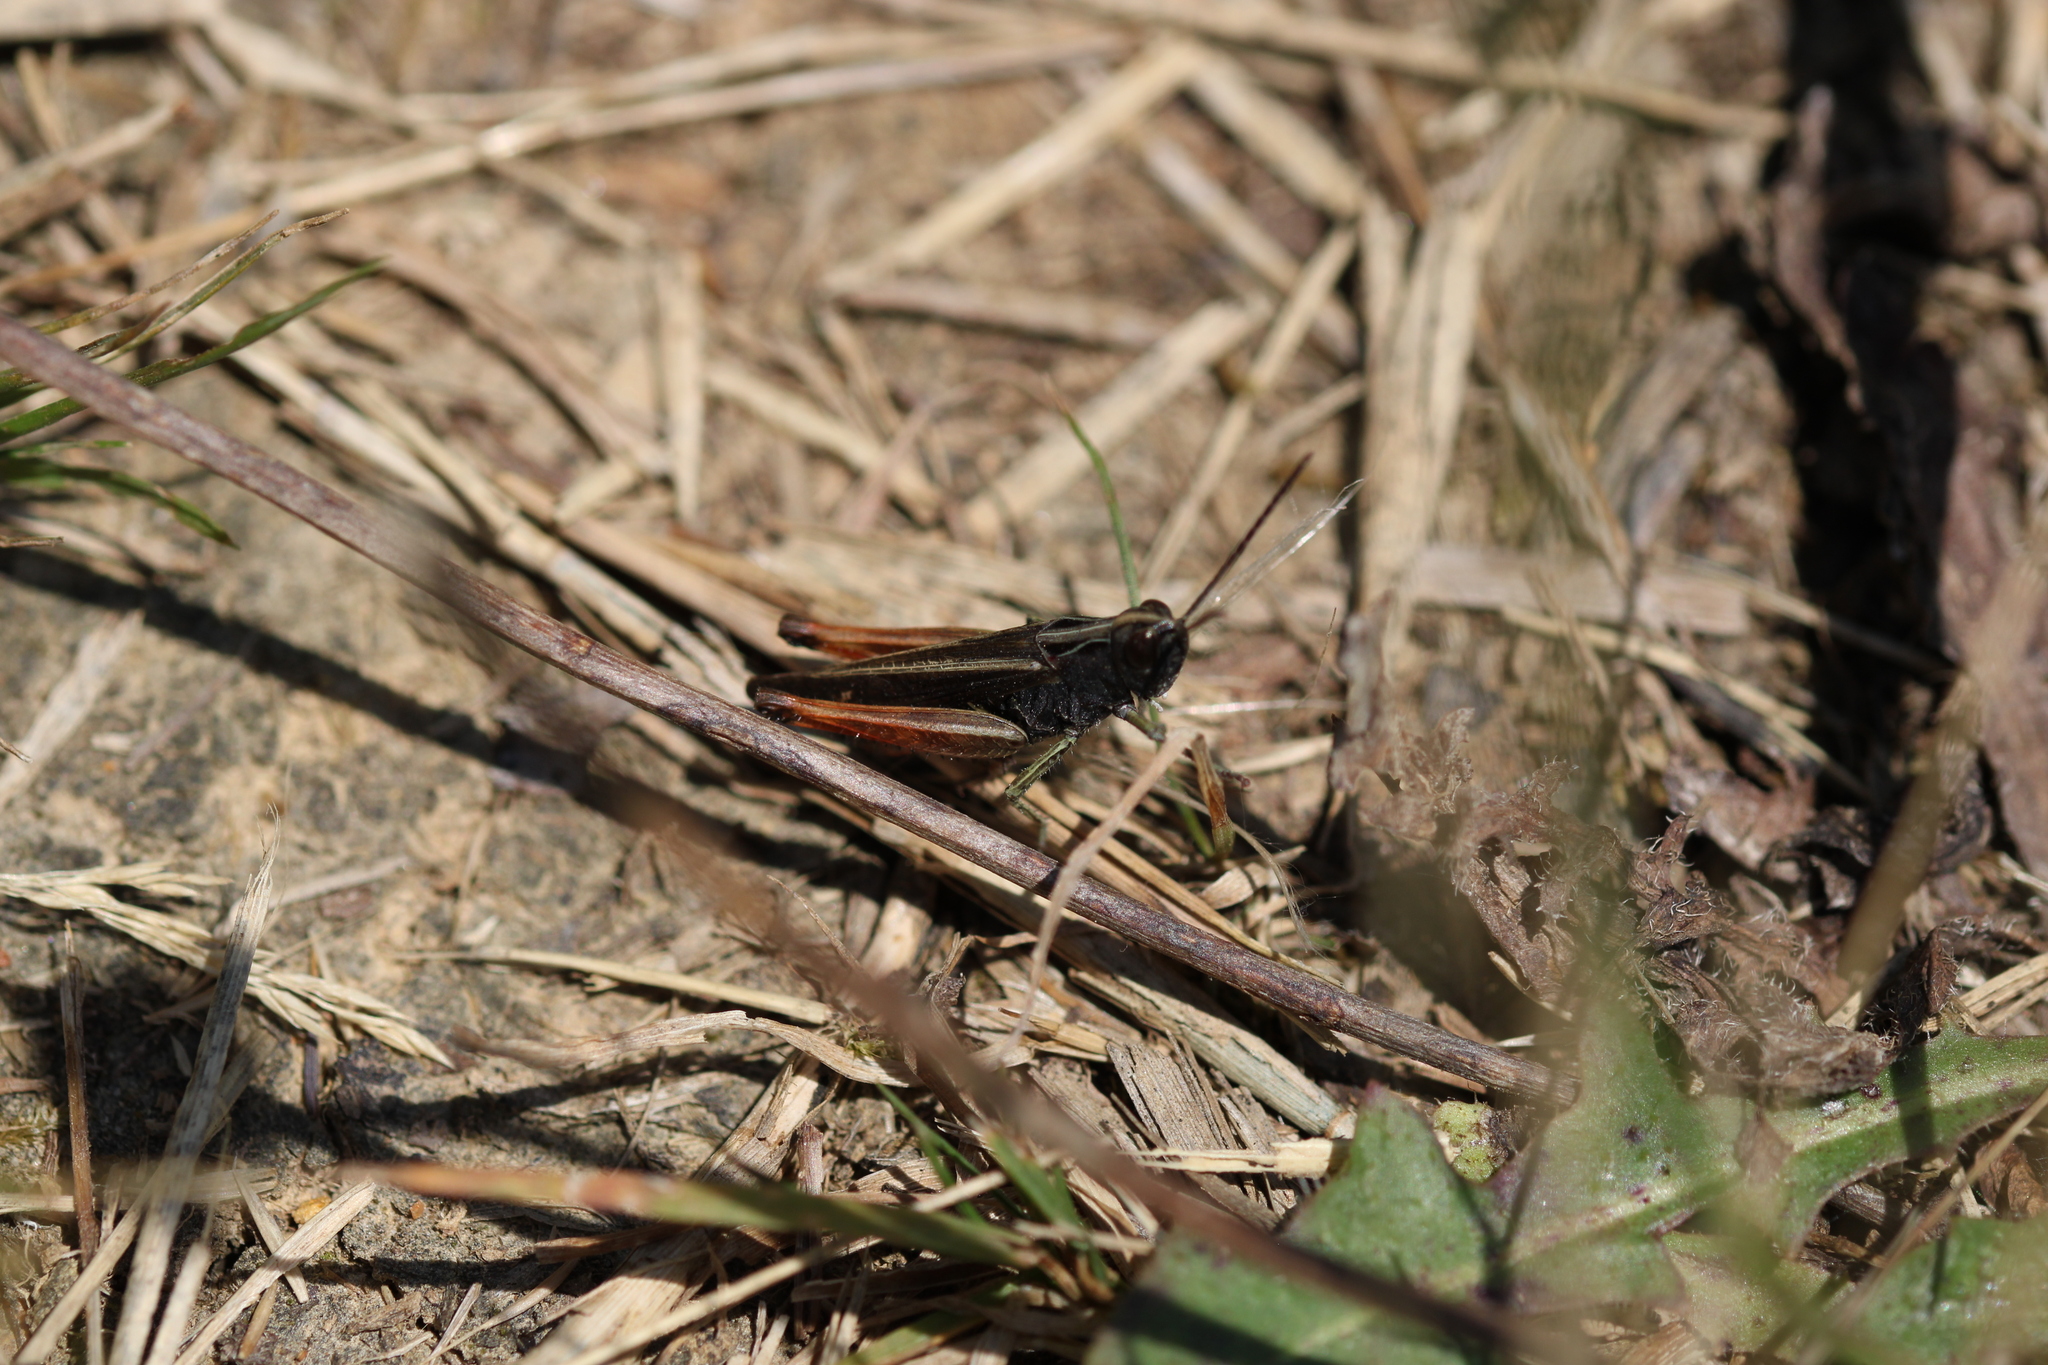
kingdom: Animalia
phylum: Arthropoda
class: Insecta
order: Orthoptera
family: Acrididae
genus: Omocestus
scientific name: Omocestus rufipes
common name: Woodland grasshopper
